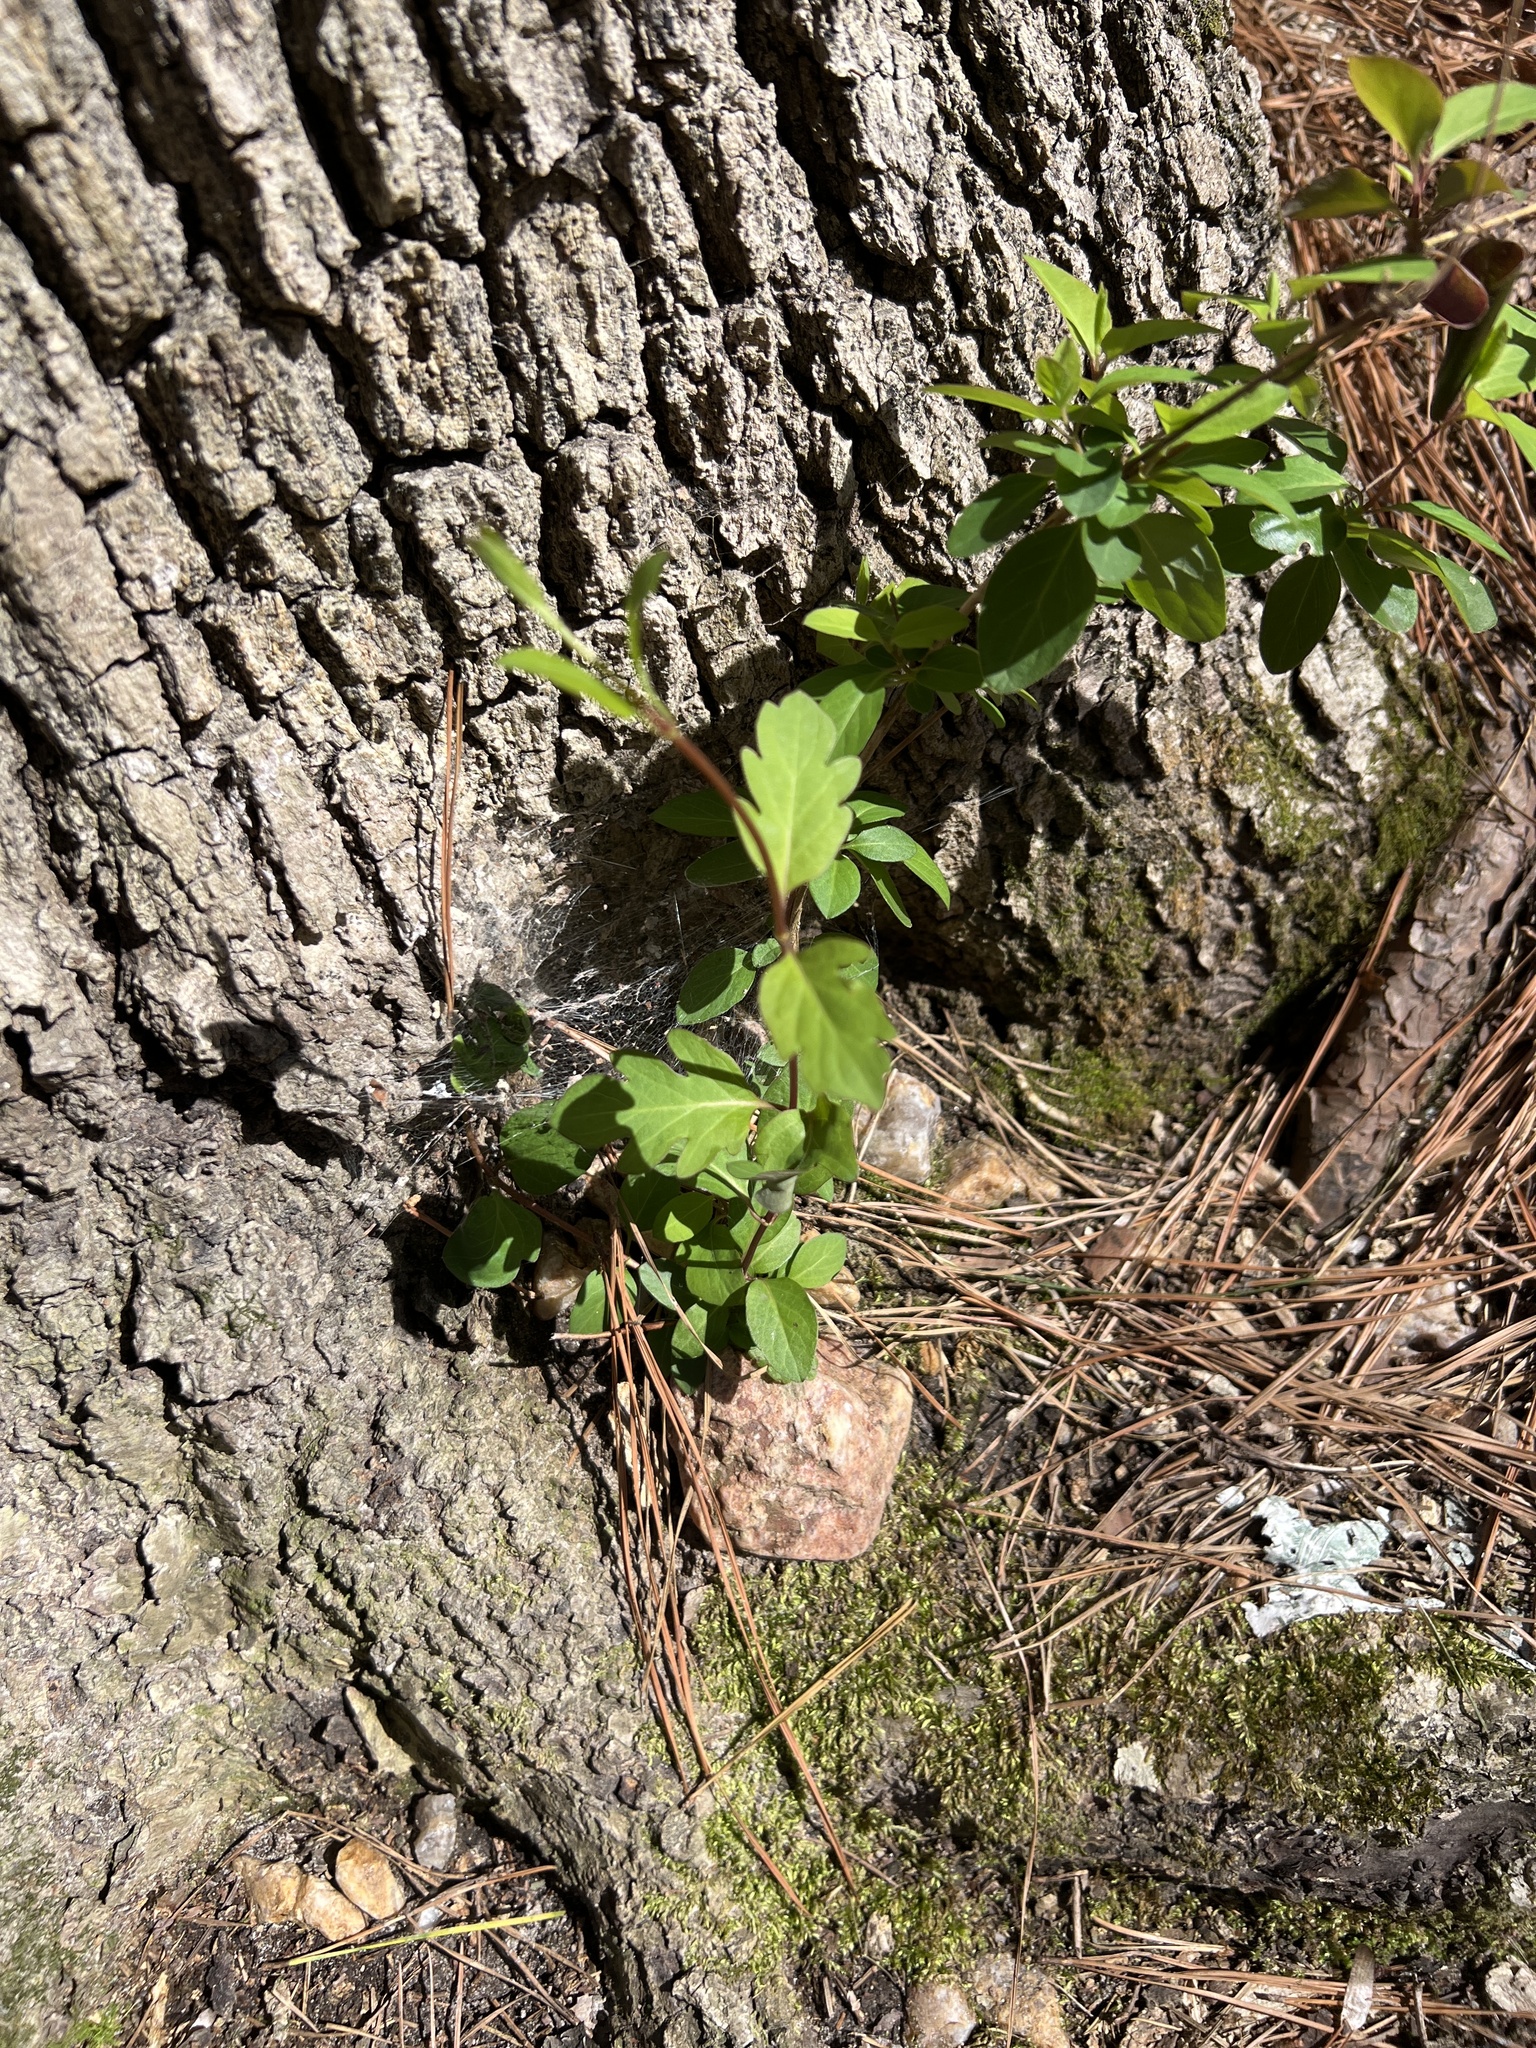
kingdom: Plantae
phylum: Tracheophyta
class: Magnoliopsida
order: Dipsacales
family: Caprifoliaceae
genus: Lonicera
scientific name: Lonicera japonica
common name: Japanese honeysuckle
